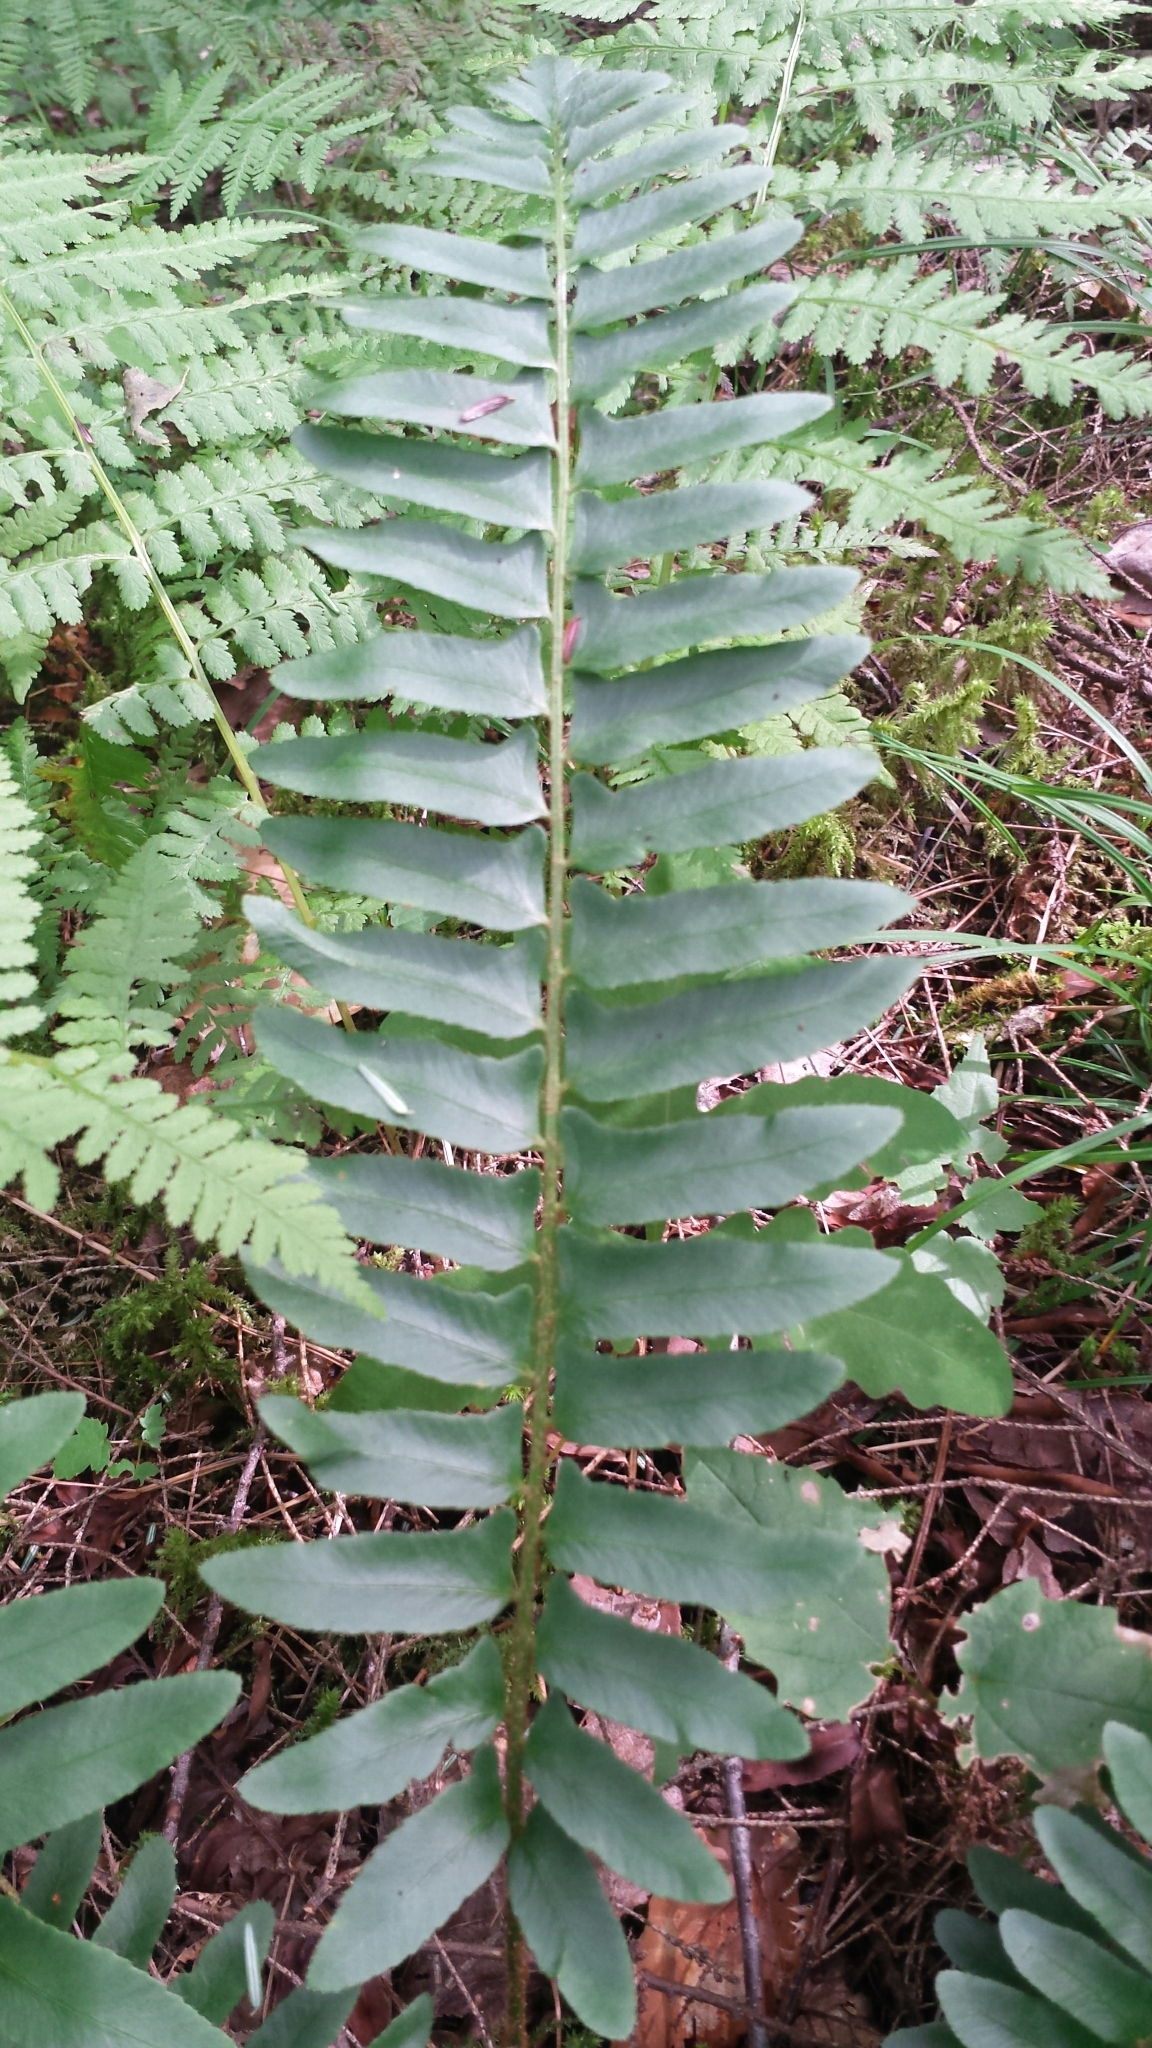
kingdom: Plantae
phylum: Tracheophyta
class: Polypodiopsida
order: Polypodiales
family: Dryopteridaceae
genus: Polystichum
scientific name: Polystichum acrostichoides
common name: Christmas fern
